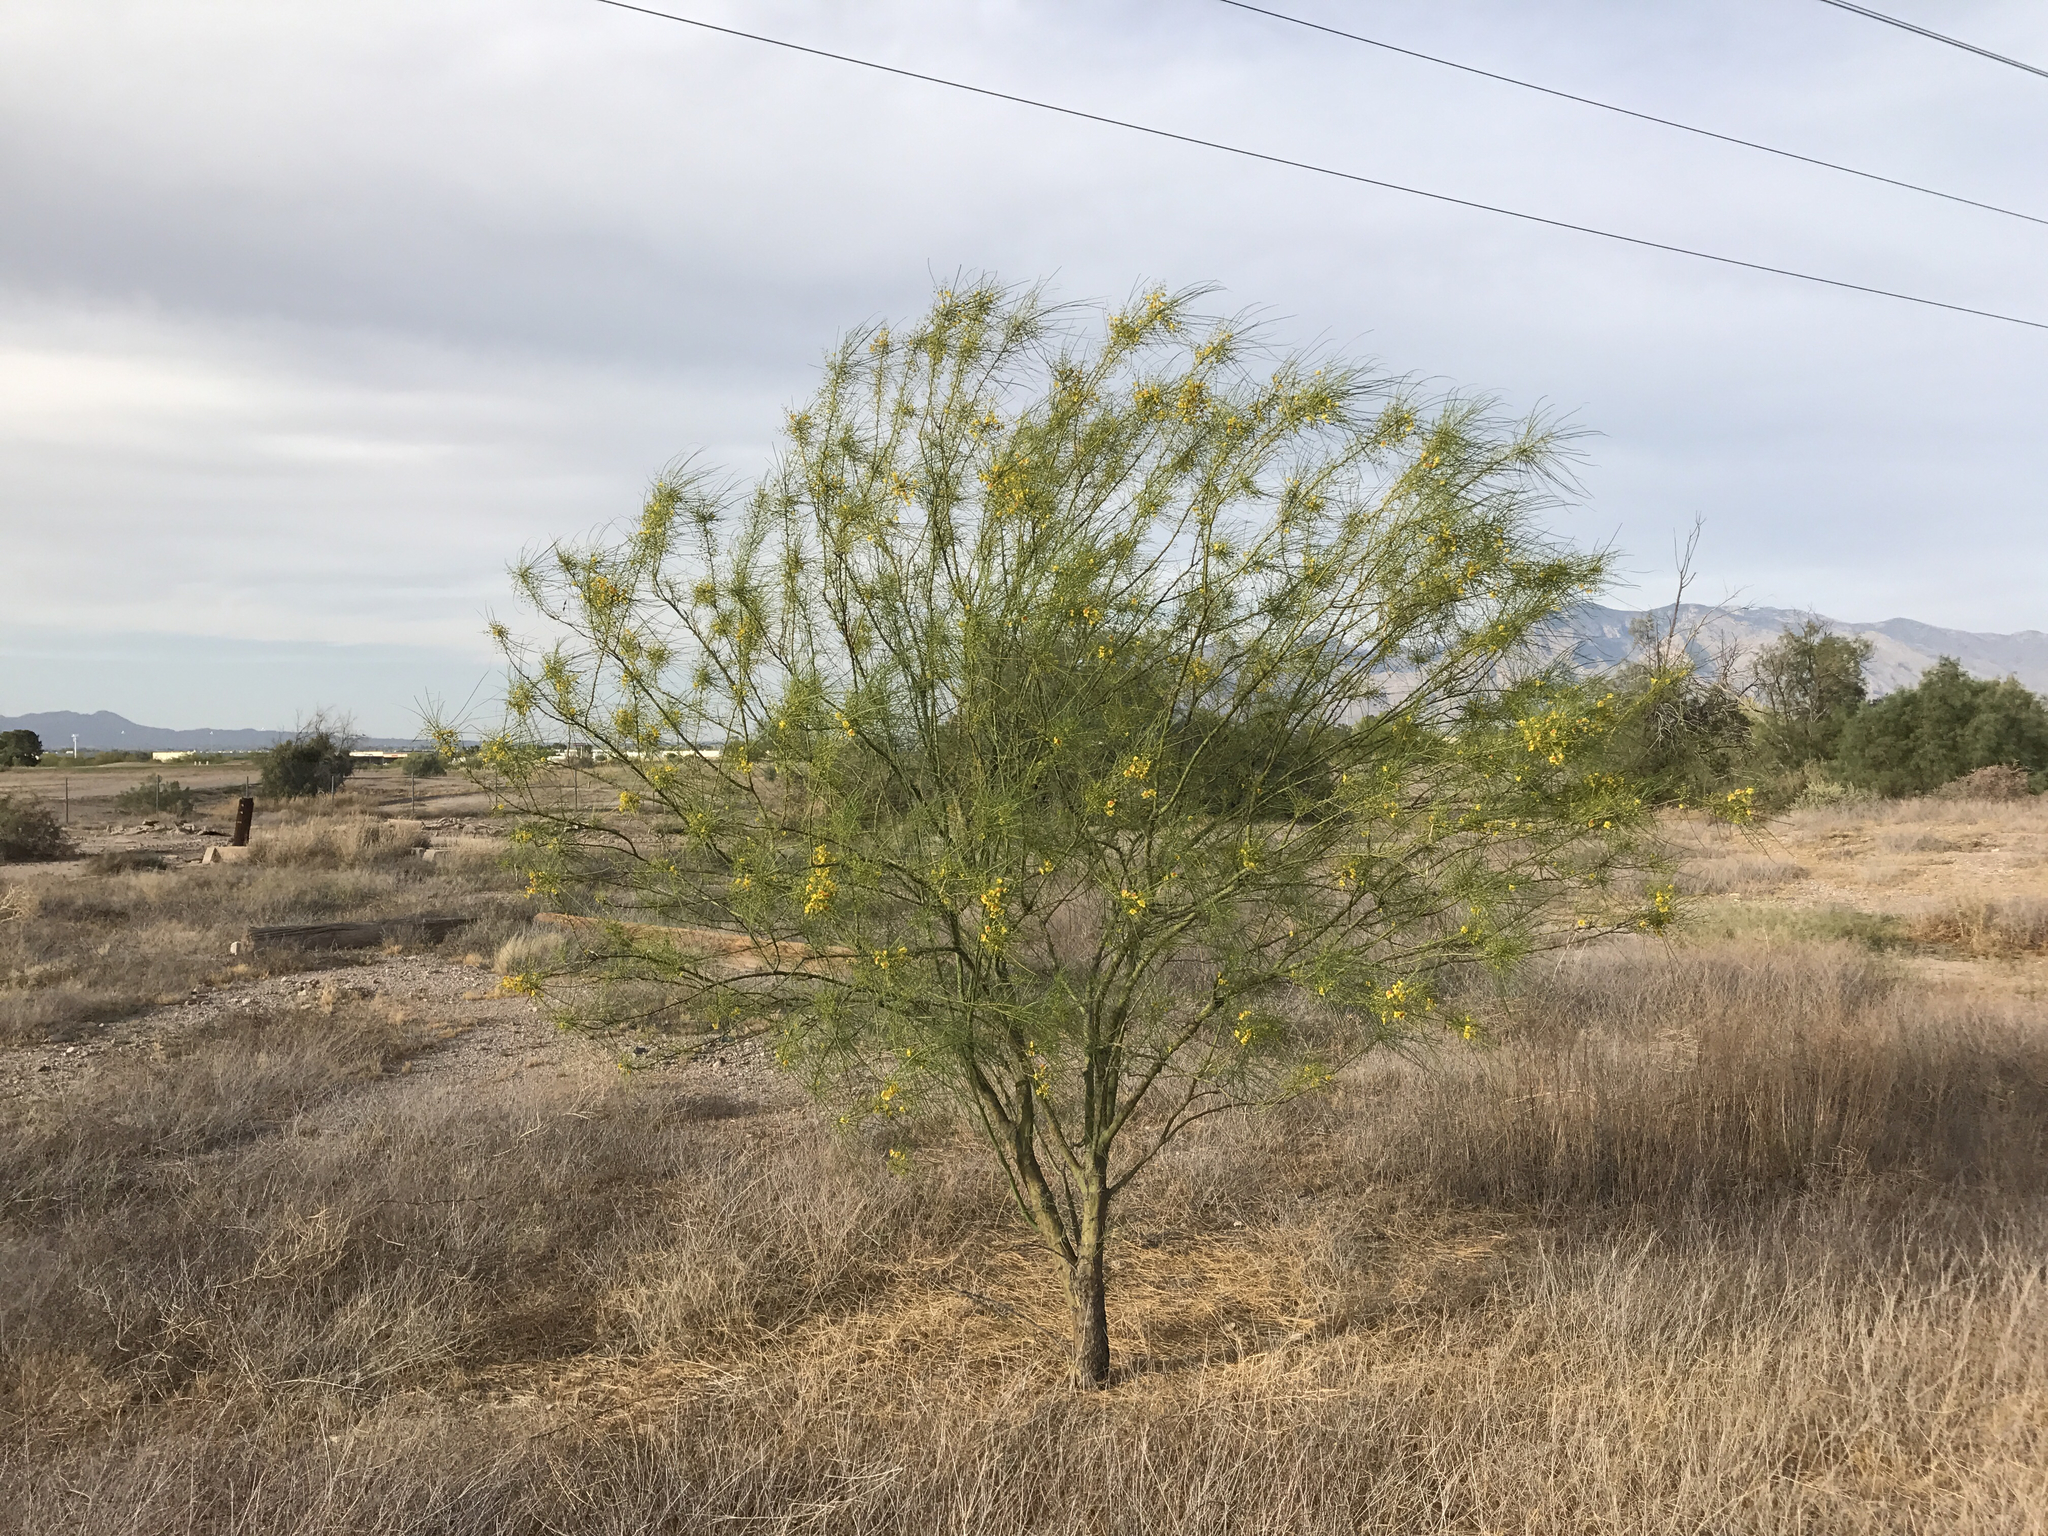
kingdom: Plantae
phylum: Tracheophyta
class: Magnoliopsida
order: Fabales
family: Fabaceae
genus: Parkinsonia
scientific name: Parkinsonia aculeata
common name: Jerusalem thorn
